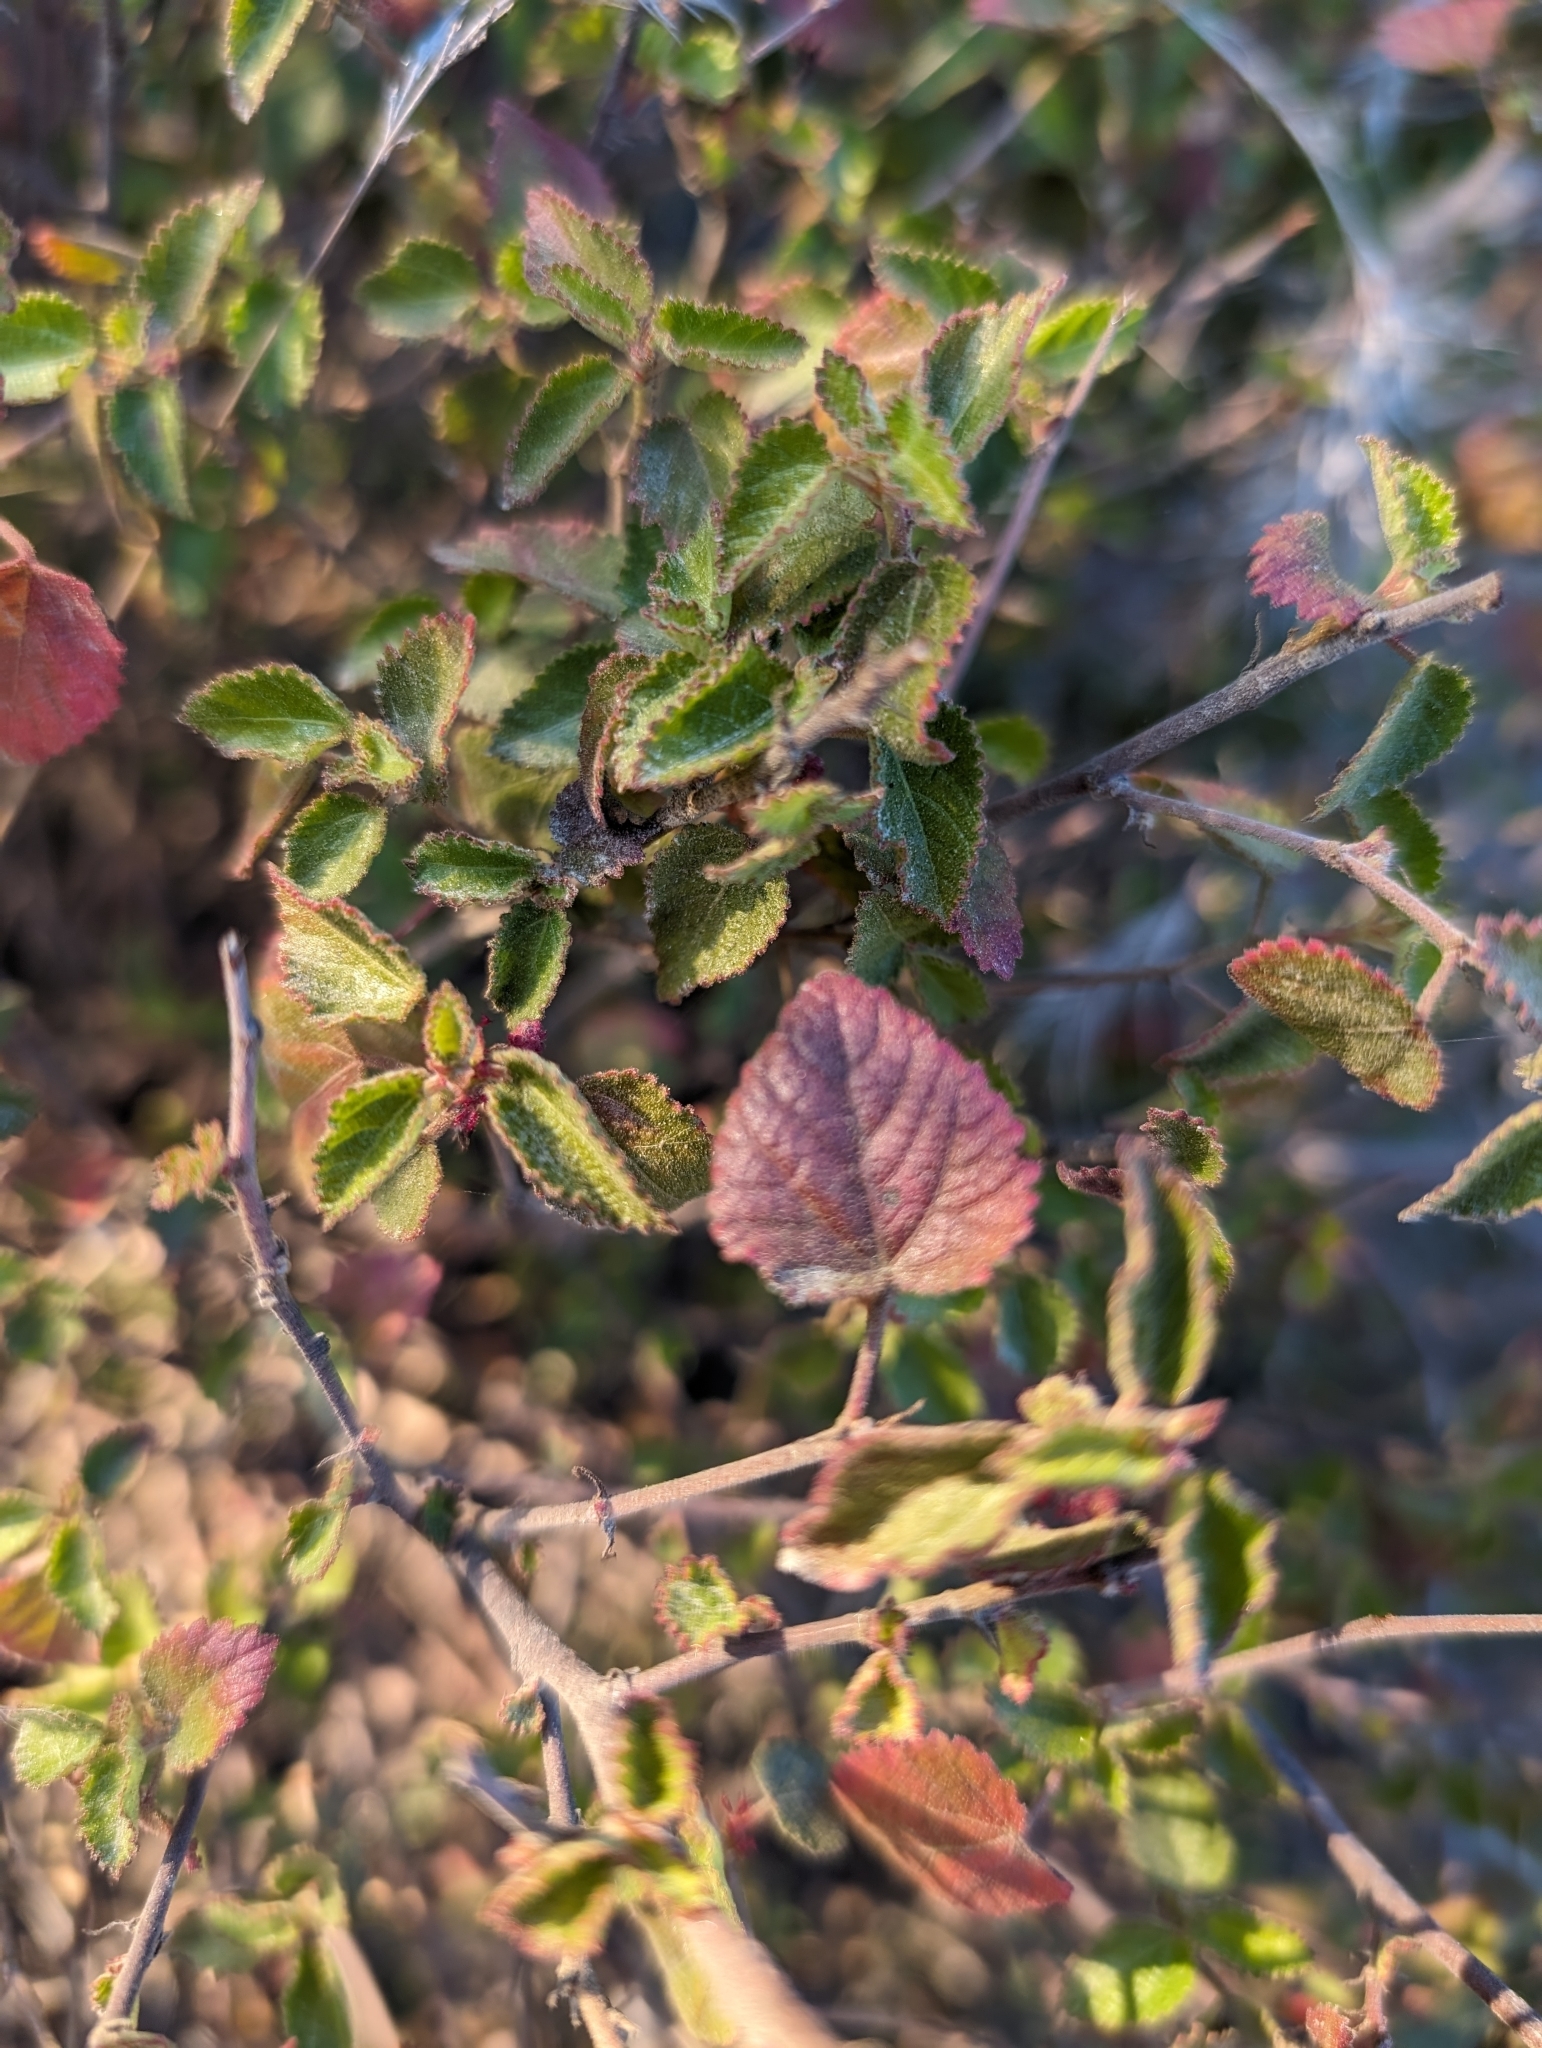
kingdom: Plantae
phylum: Tracheophyta
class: Magnoliopsida
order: Malpighiales
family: Euphorbiaceae
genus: Acalypha
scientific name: Acalypha californica
